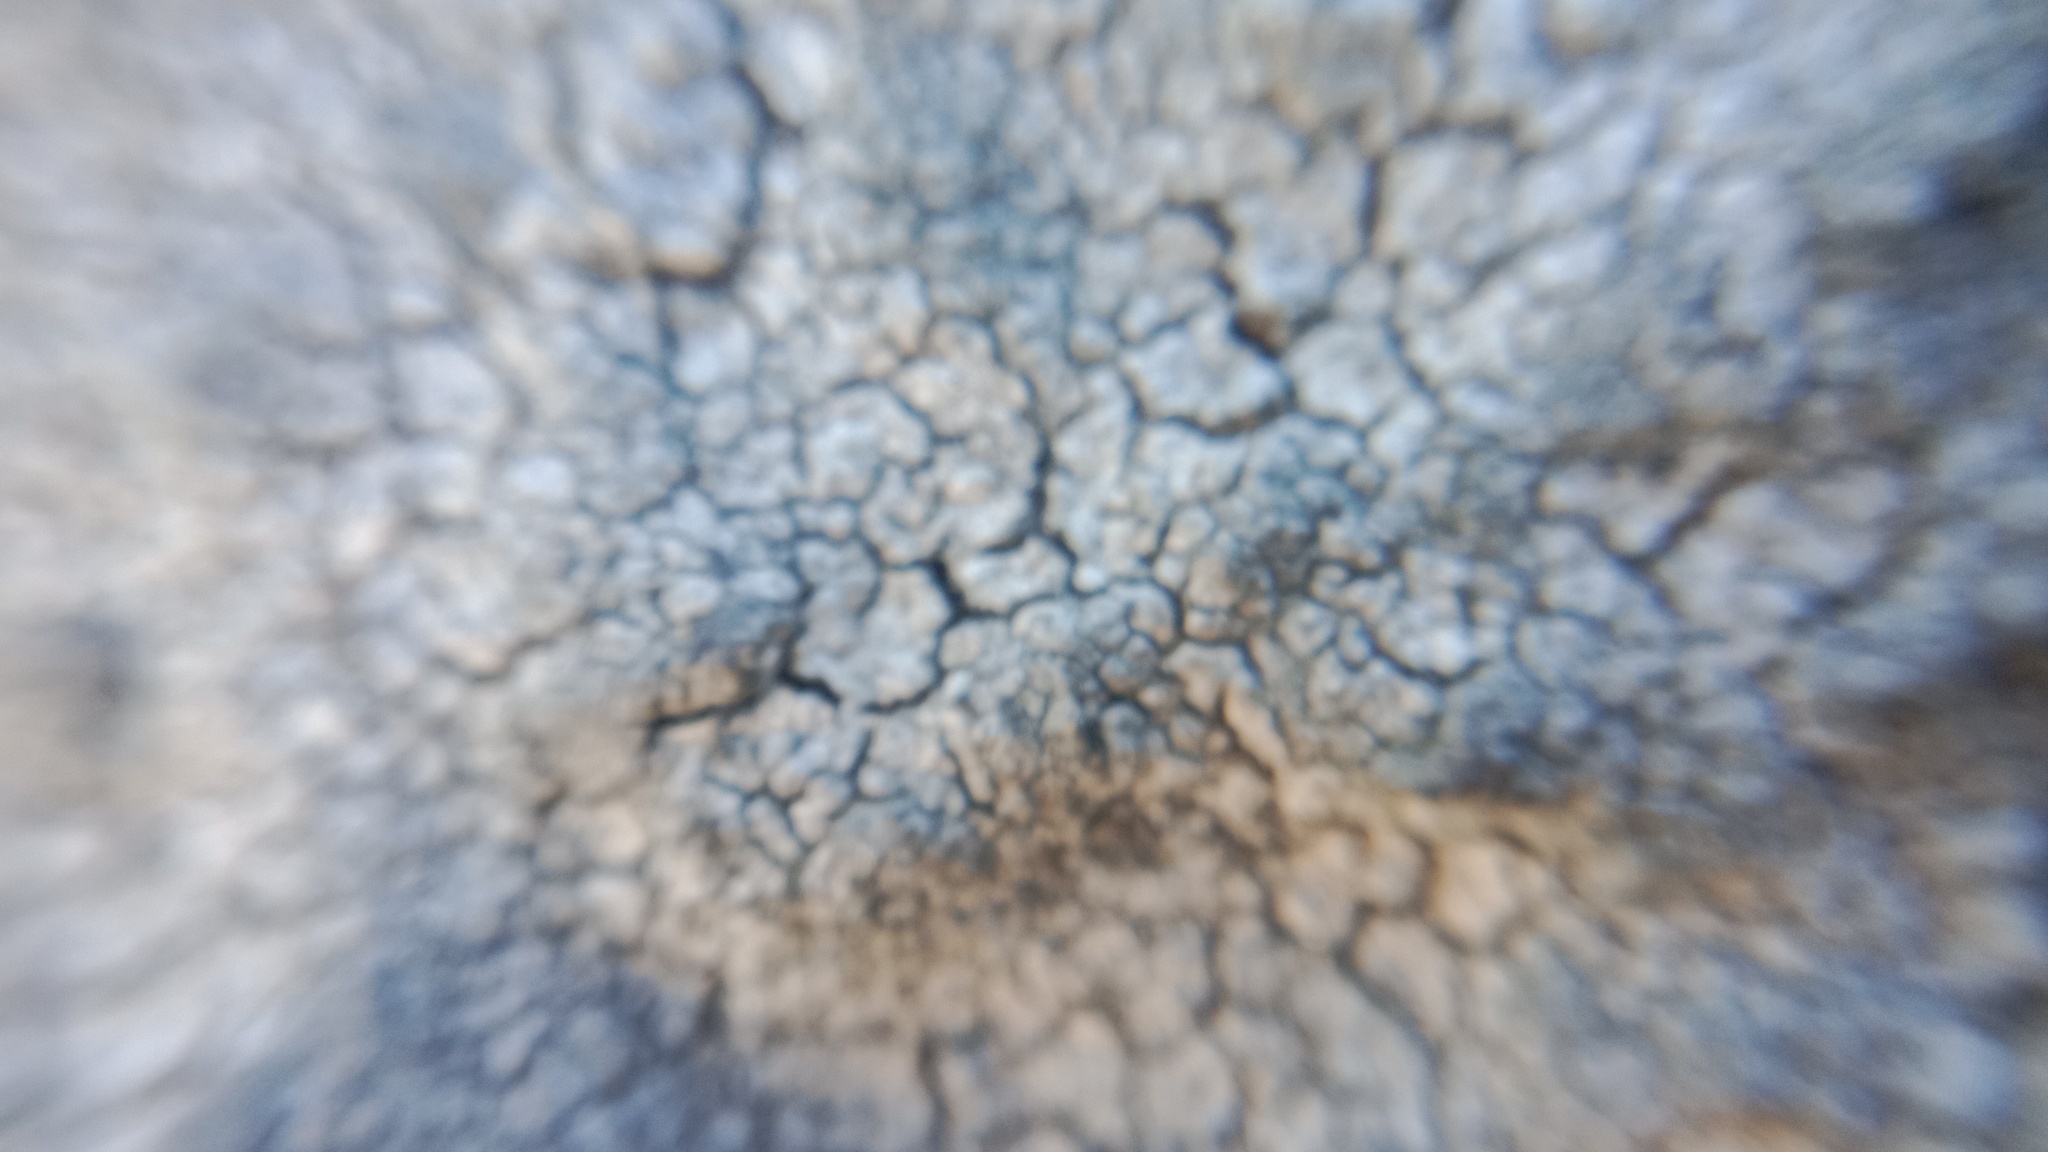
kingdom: Fungi
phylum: Ascomycota
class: Lecanoromycetes
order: Pertusariales
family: Megasporaceae
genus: Aspiciliella
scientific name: Aspiciliella intermutans
